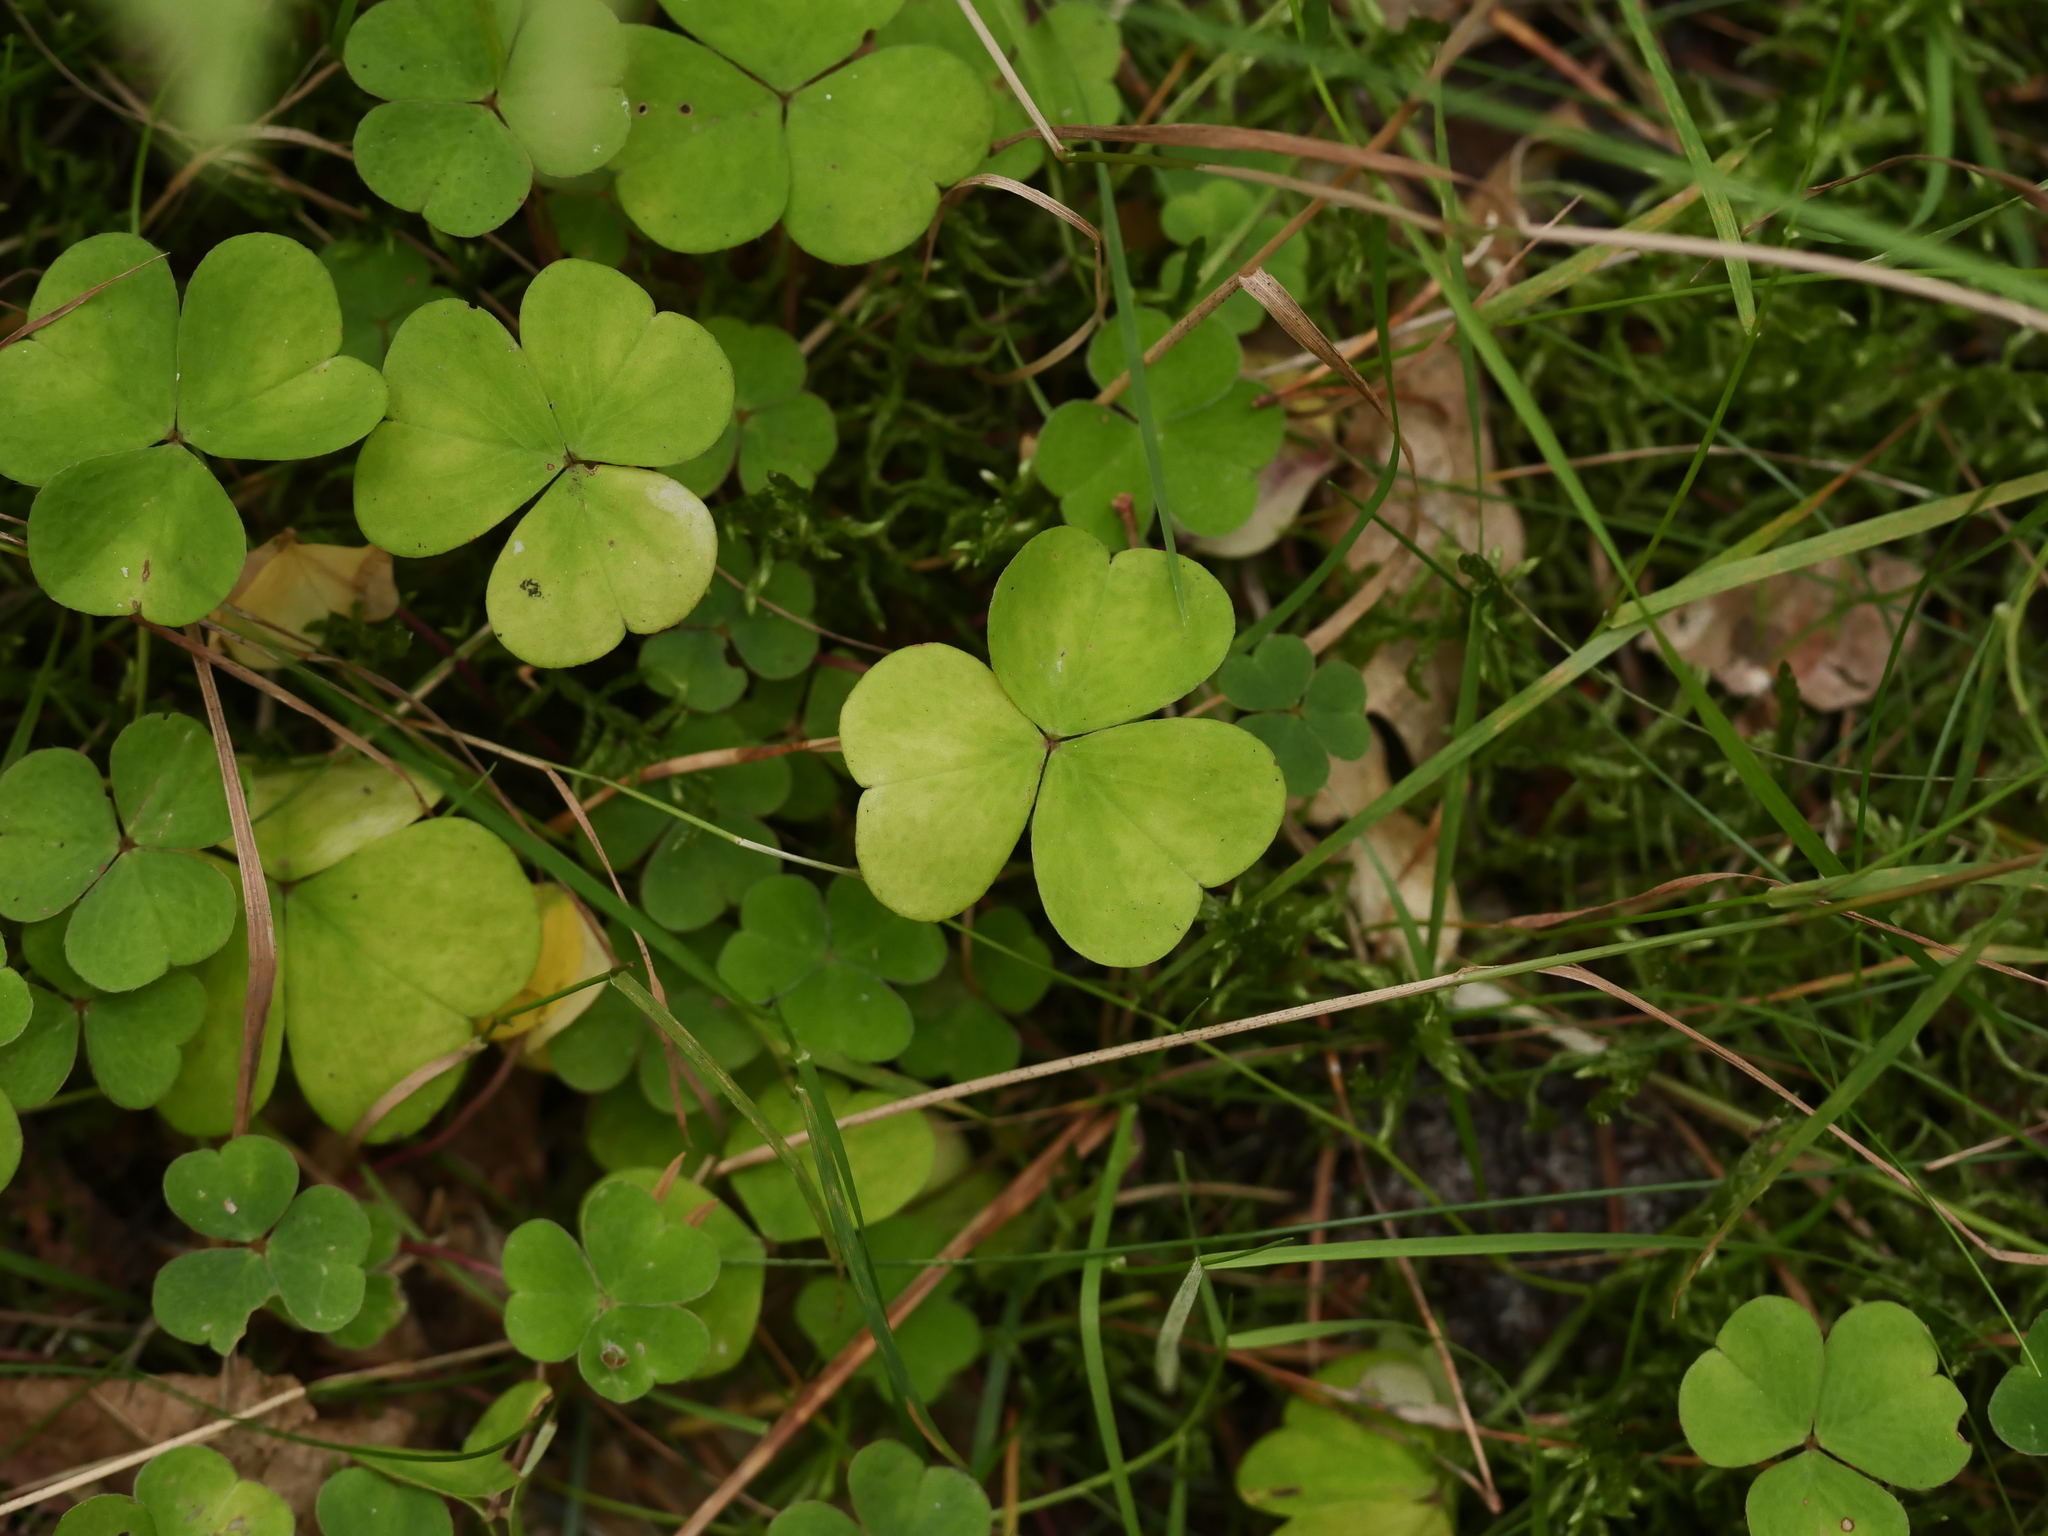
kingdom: Plantae
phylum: Tracheophyta
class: Magnoliopsida
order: Oxalidales
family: Oxalidaceae
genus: Oxalis
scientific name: Oxalis acetosella
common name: Wood-sorrel
